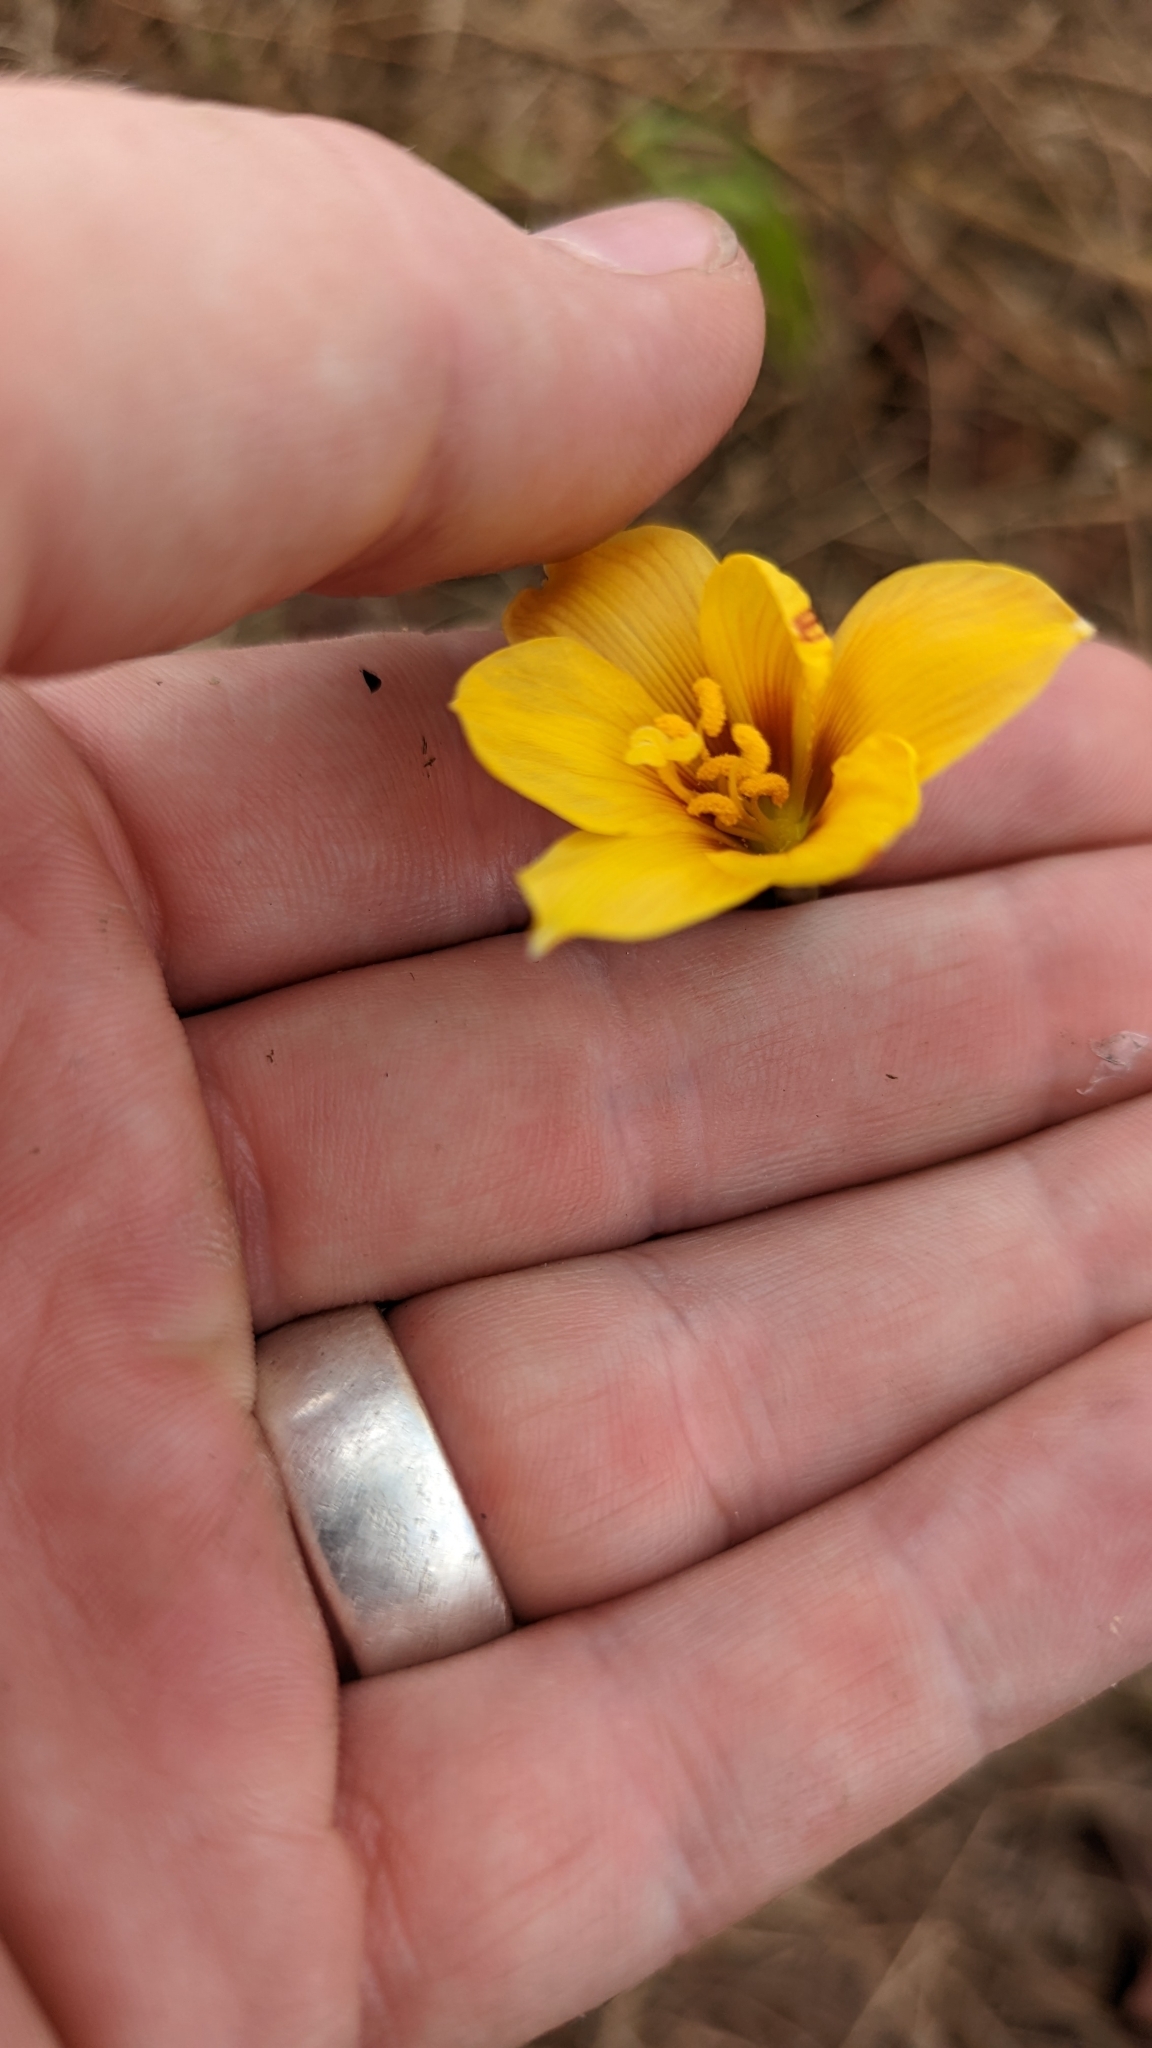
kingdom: Plantae
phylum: Tracheophyta
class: Liliopsida
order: Asparagales
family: Amaryllidaceae
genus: Zephyranthes
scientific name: Zephyranthes tubispatha
